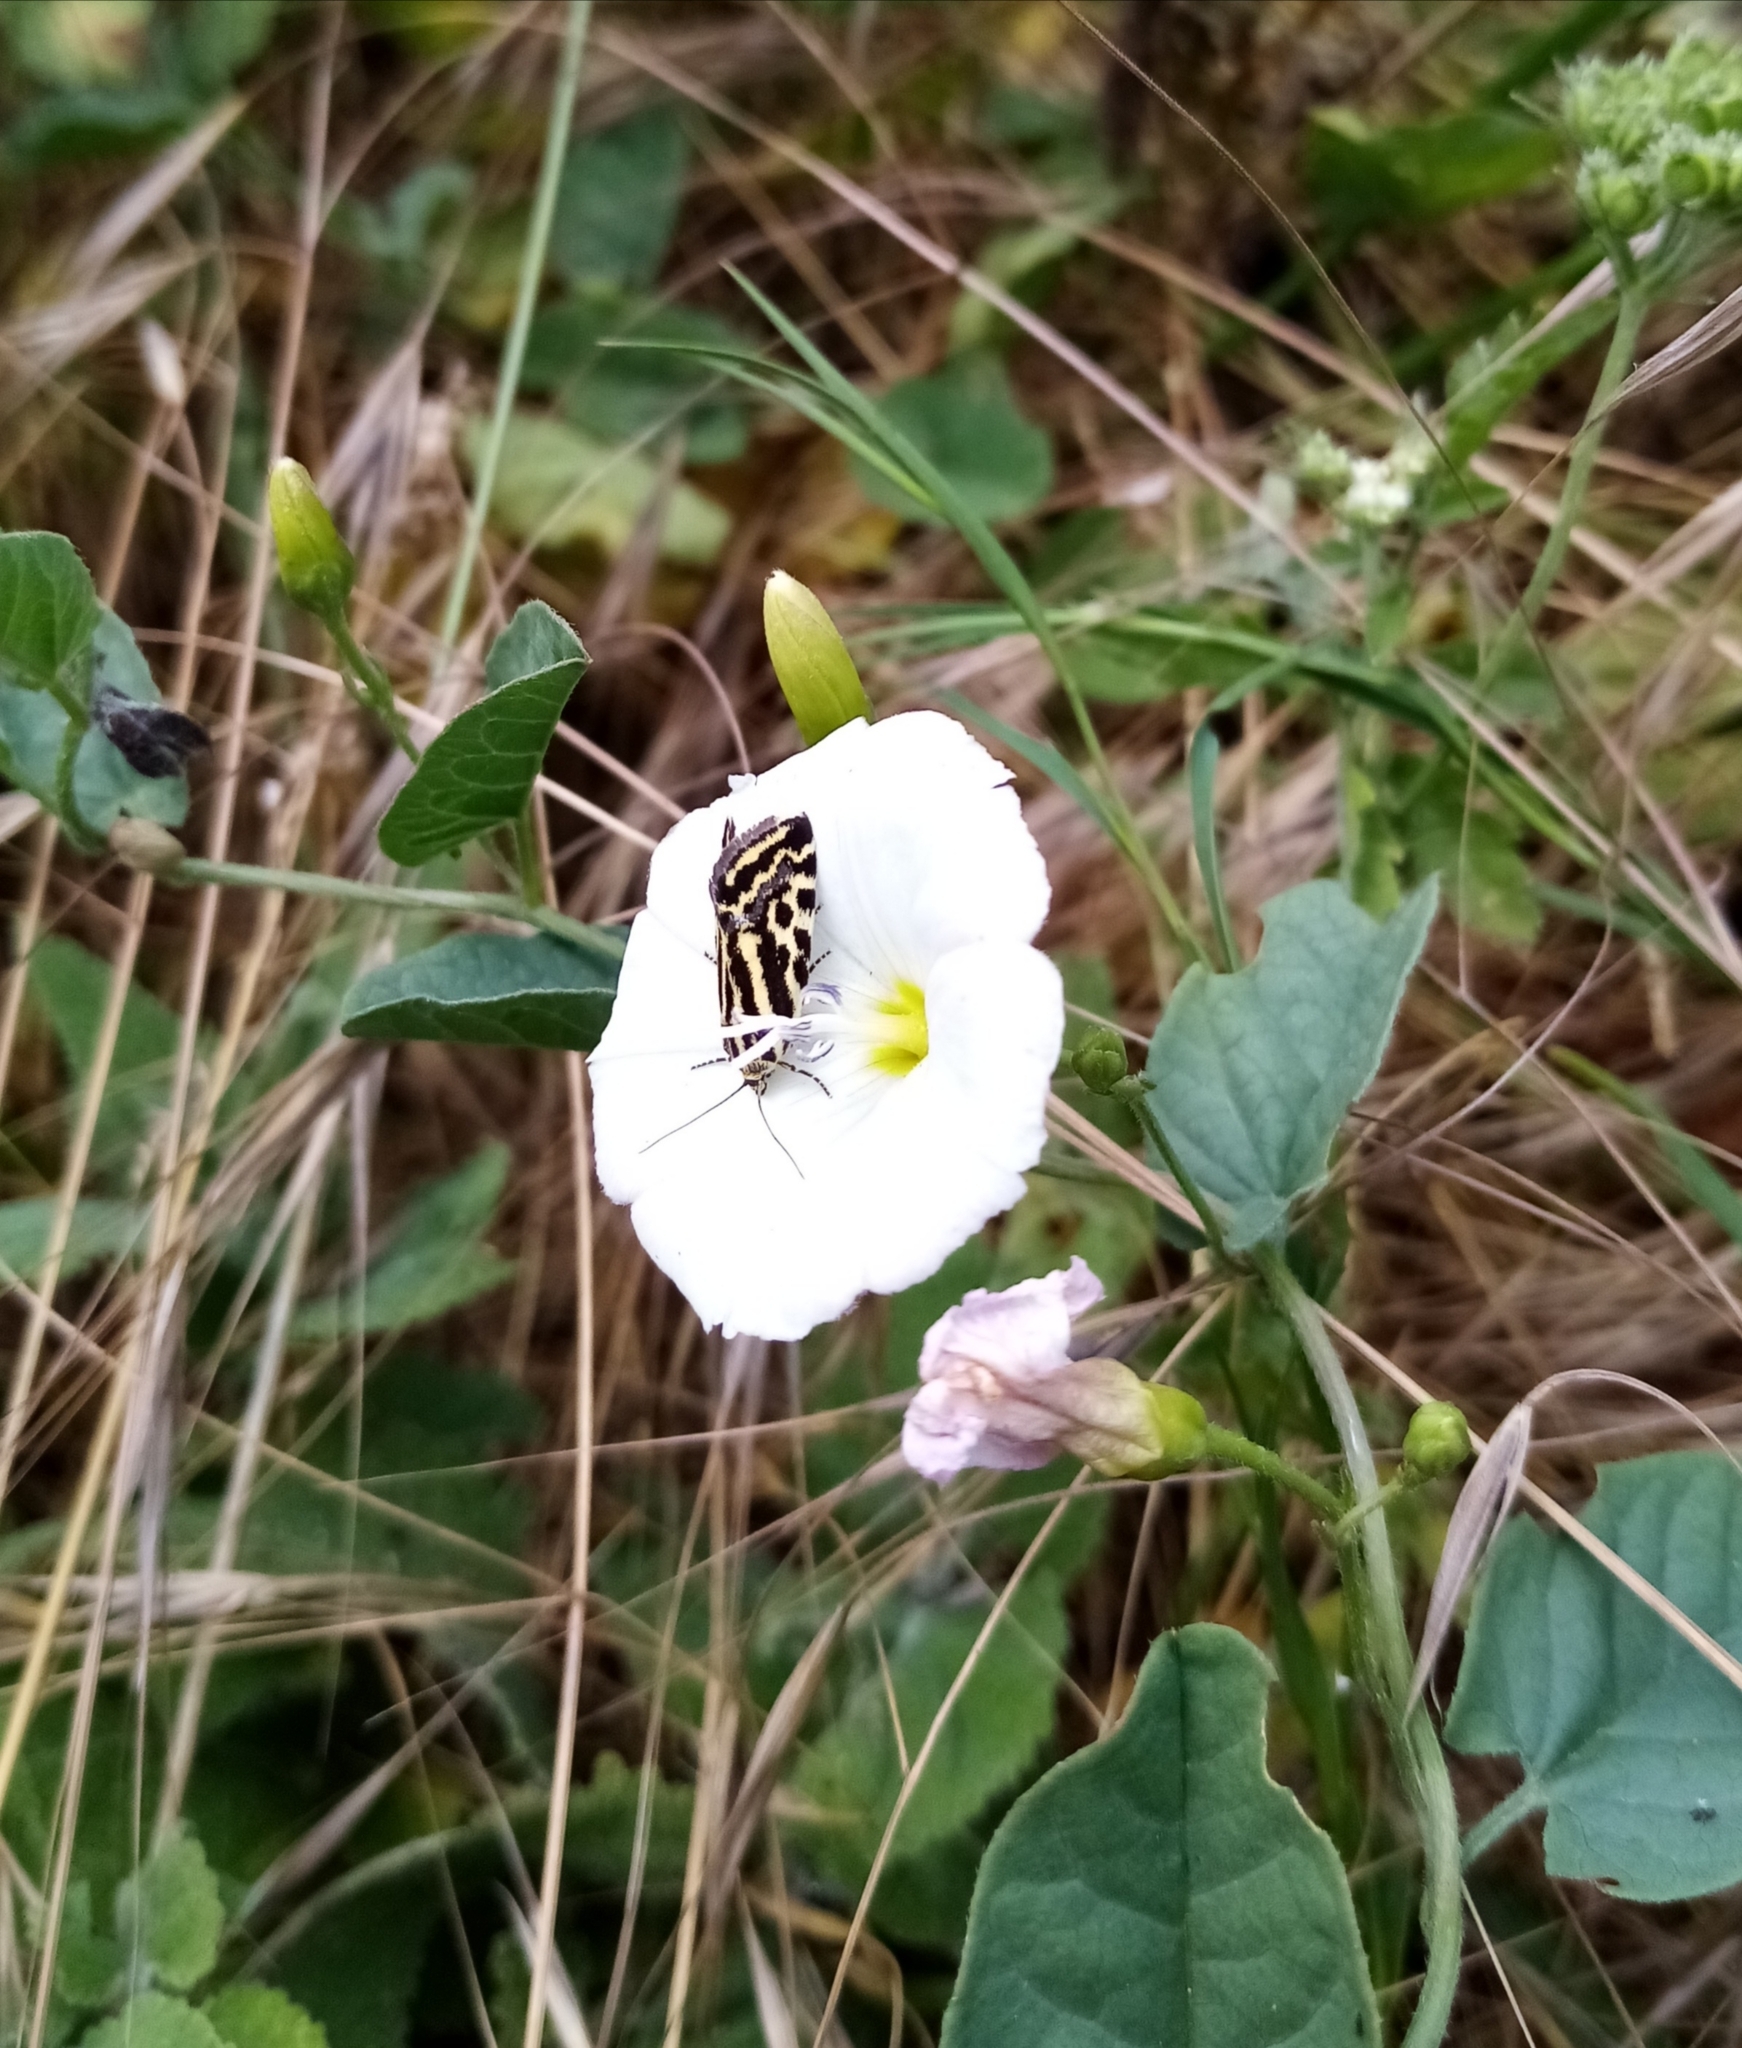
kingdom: Animalia
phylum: Arthropoda
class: Insecta
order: Lepidoptera
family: Noctuidae
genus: Acontia
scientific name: Acontia trabealis
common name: Spotted sulphur
